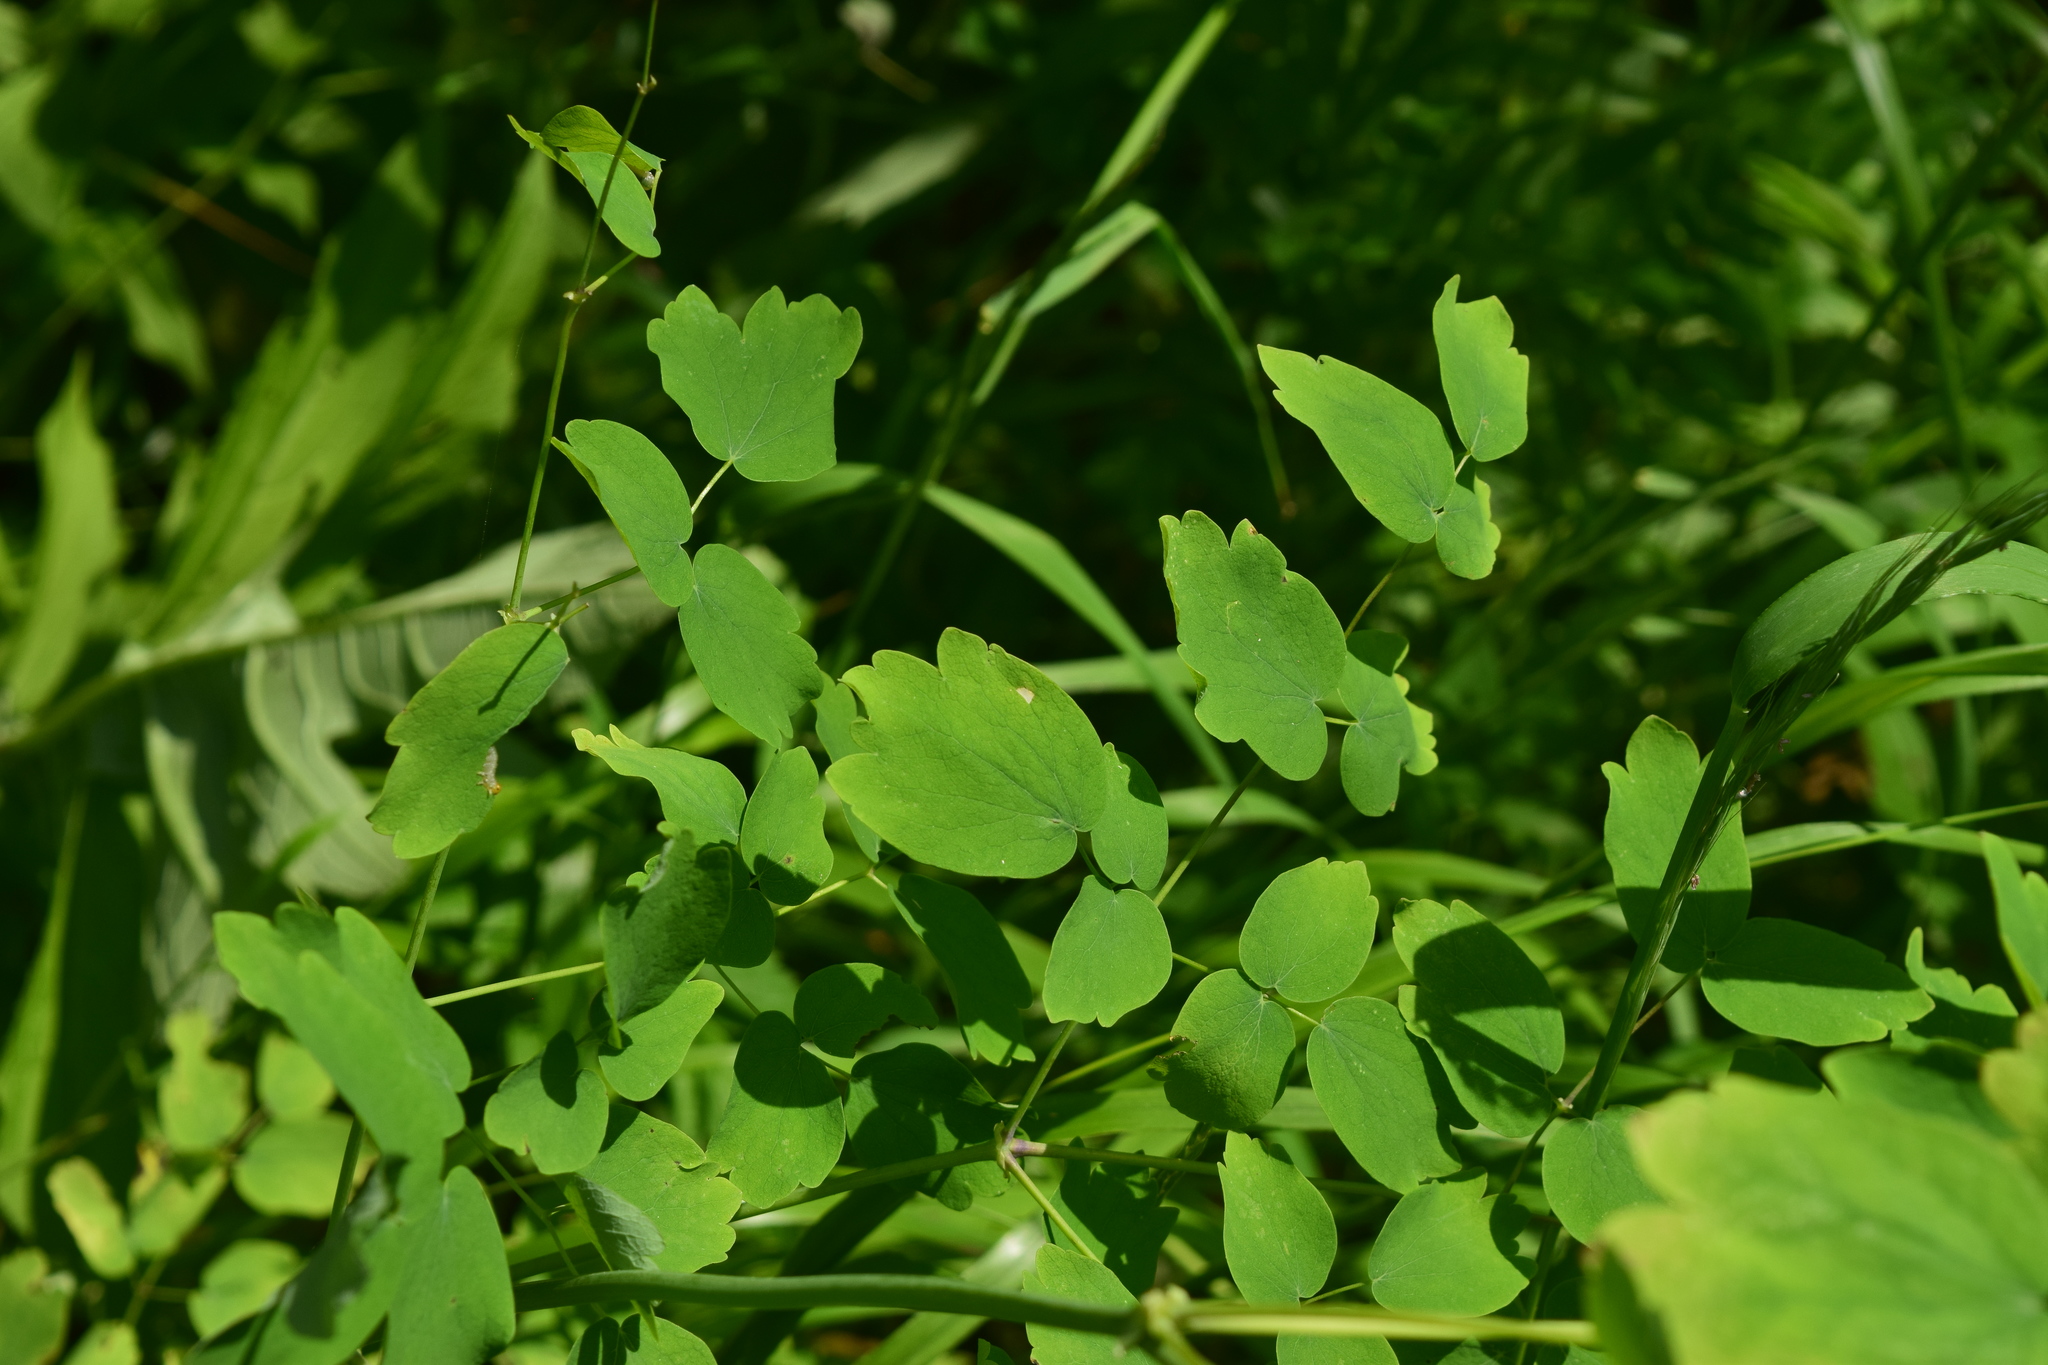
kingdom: Plantae
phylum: Tracheophyta
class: Magnoliopsida
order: Ranunculales
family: Ranunculaceae
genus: Thalictrum
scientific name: Thalictrum aquilegiifolium
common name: French meadow-rue
